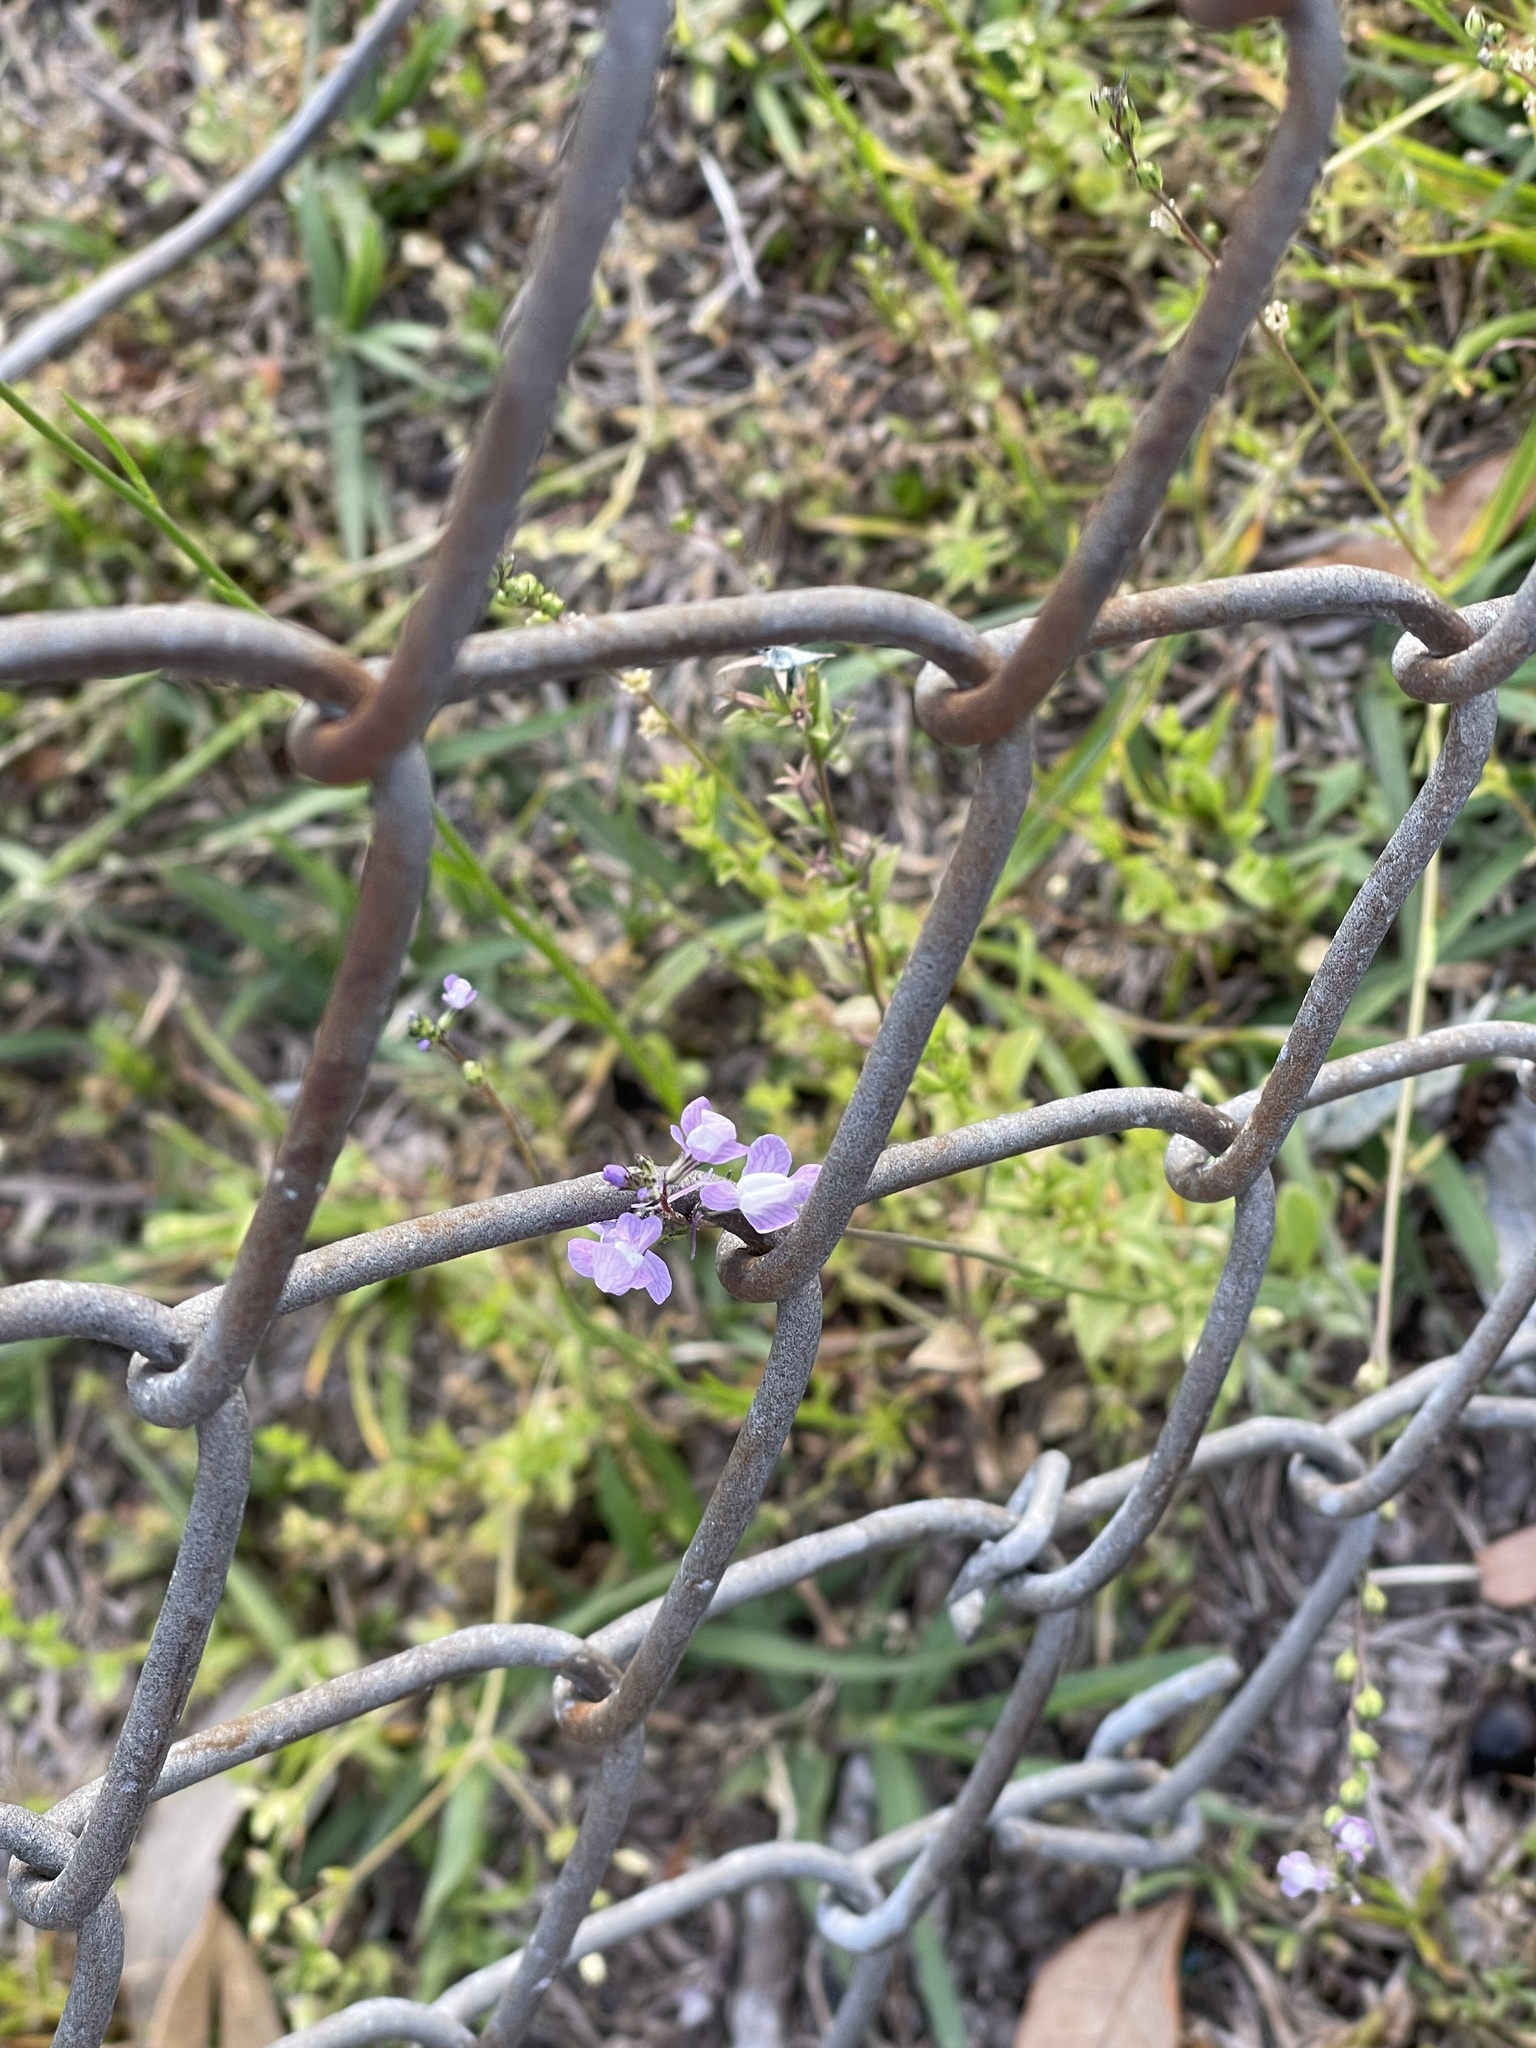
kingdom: Plantae
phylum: Tracheophyta
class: Magnoliopsida
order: Lamiales
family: Plantaginaceae
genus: Nuttallanthus
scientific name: Nuttallanthus canadensis
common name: Blue toadflax
